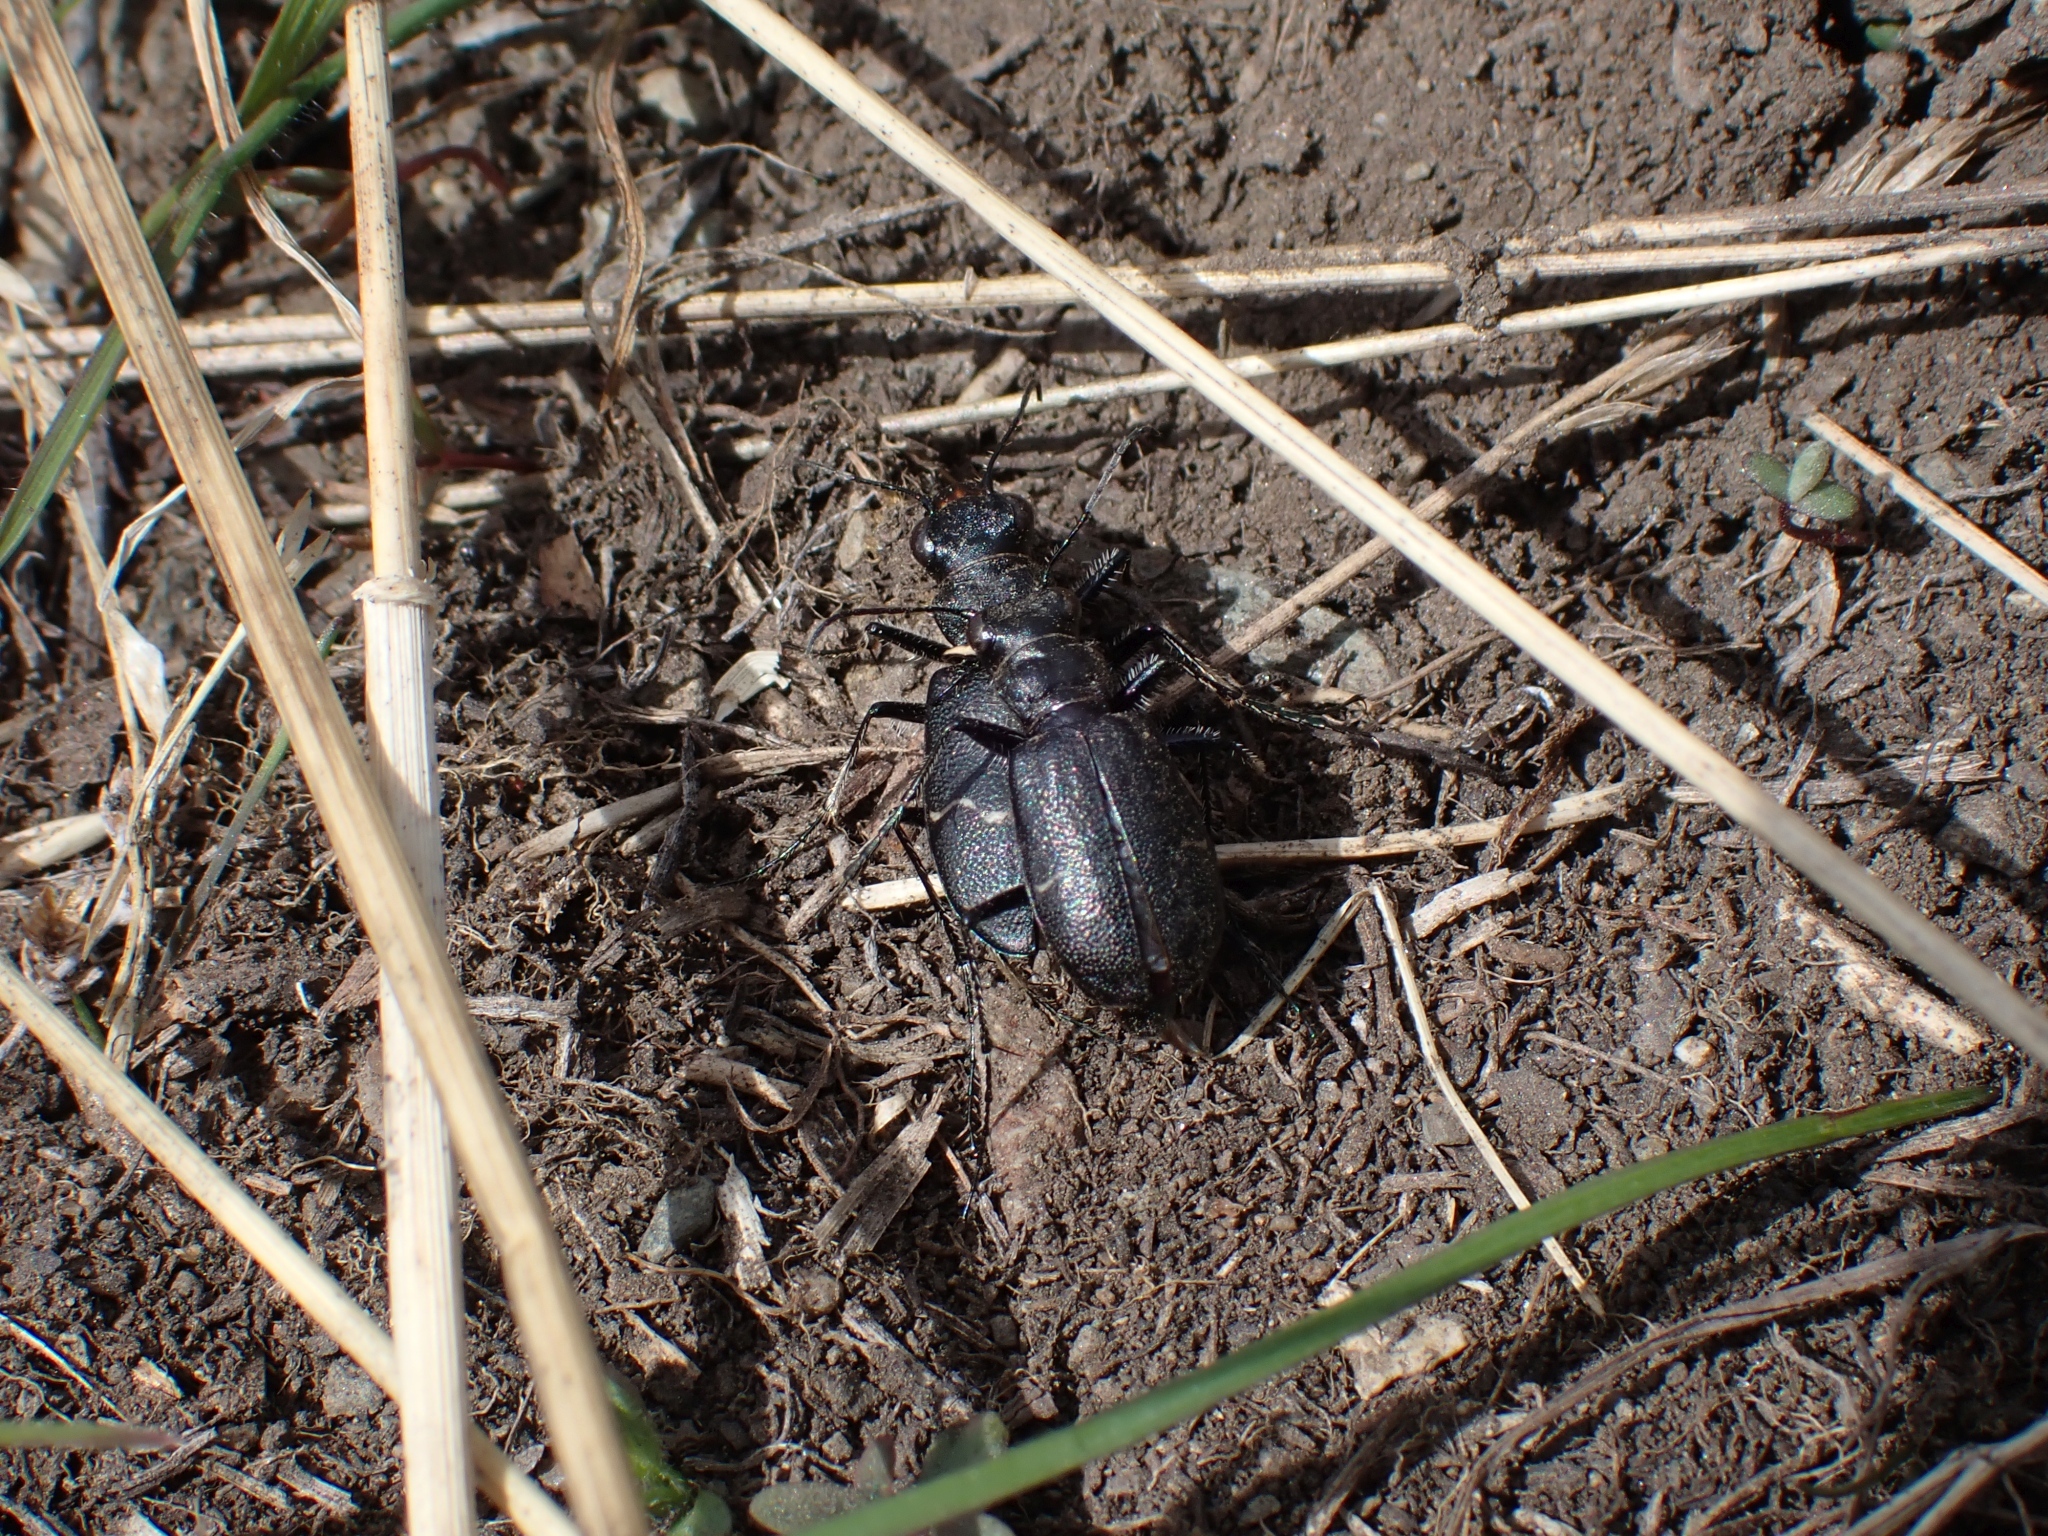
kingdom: Animalia
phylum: Arthropoda
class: Insecta
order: Coleoptera
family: Carabidae
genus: Cicindela
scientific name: Cicindela nebraskana
